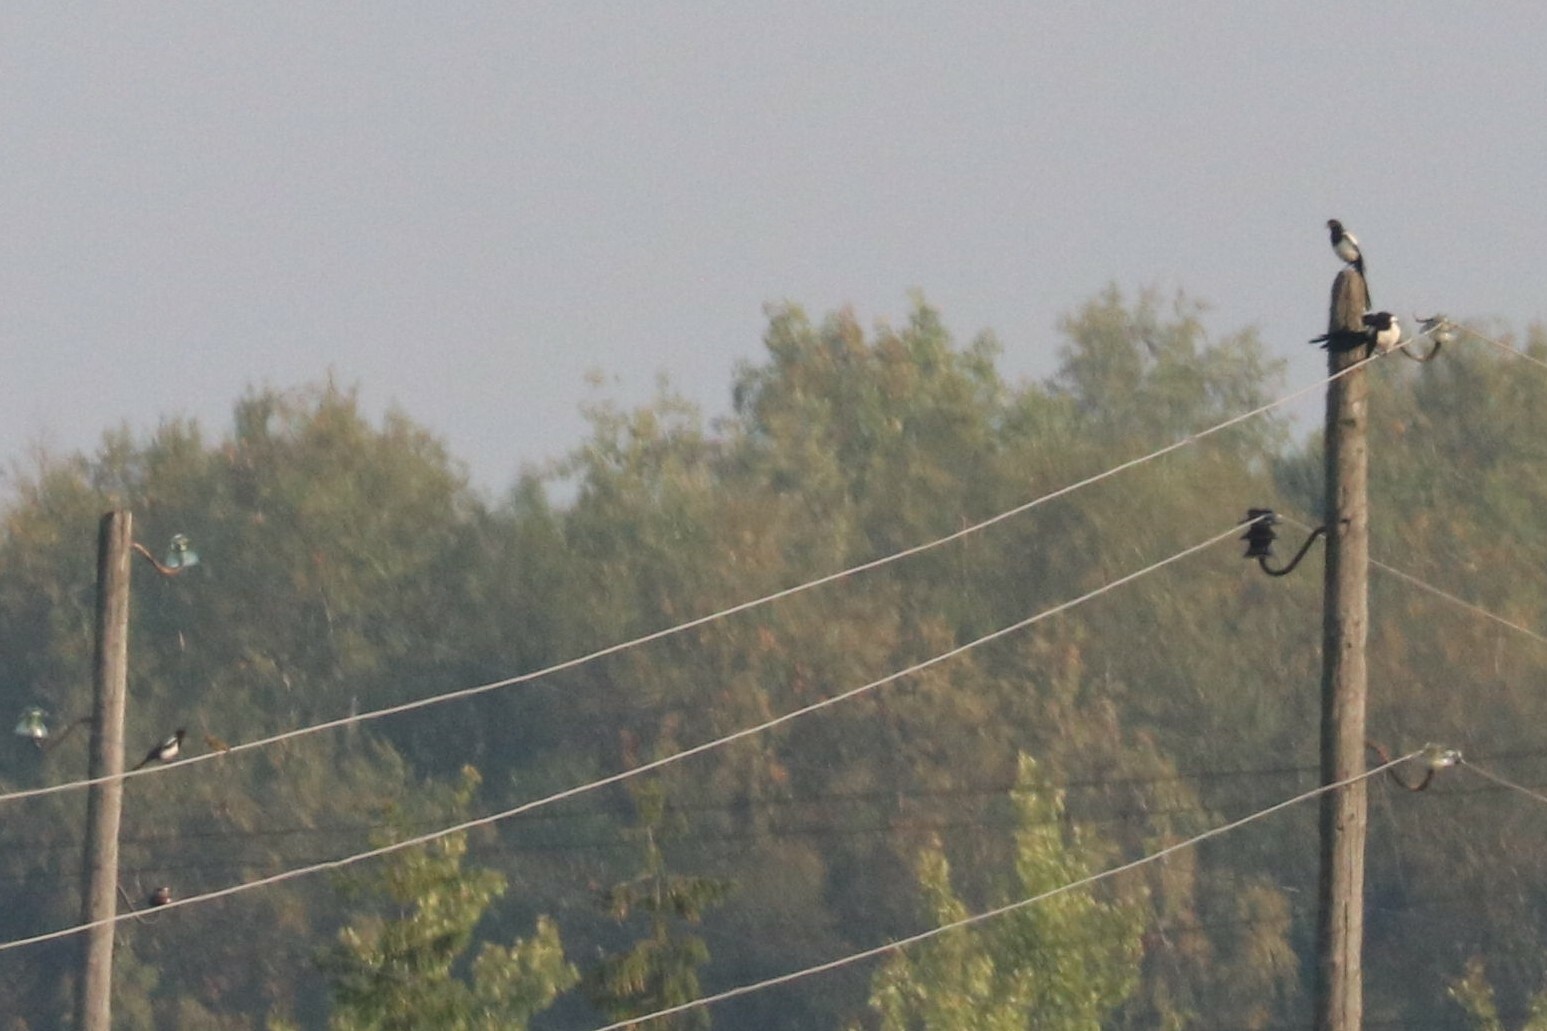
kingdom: Animalia
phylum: Chordata
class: Aves
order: Passeriformes
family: Corvidae
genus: Pica
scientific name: Pica pica
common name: Eurasian magpie
